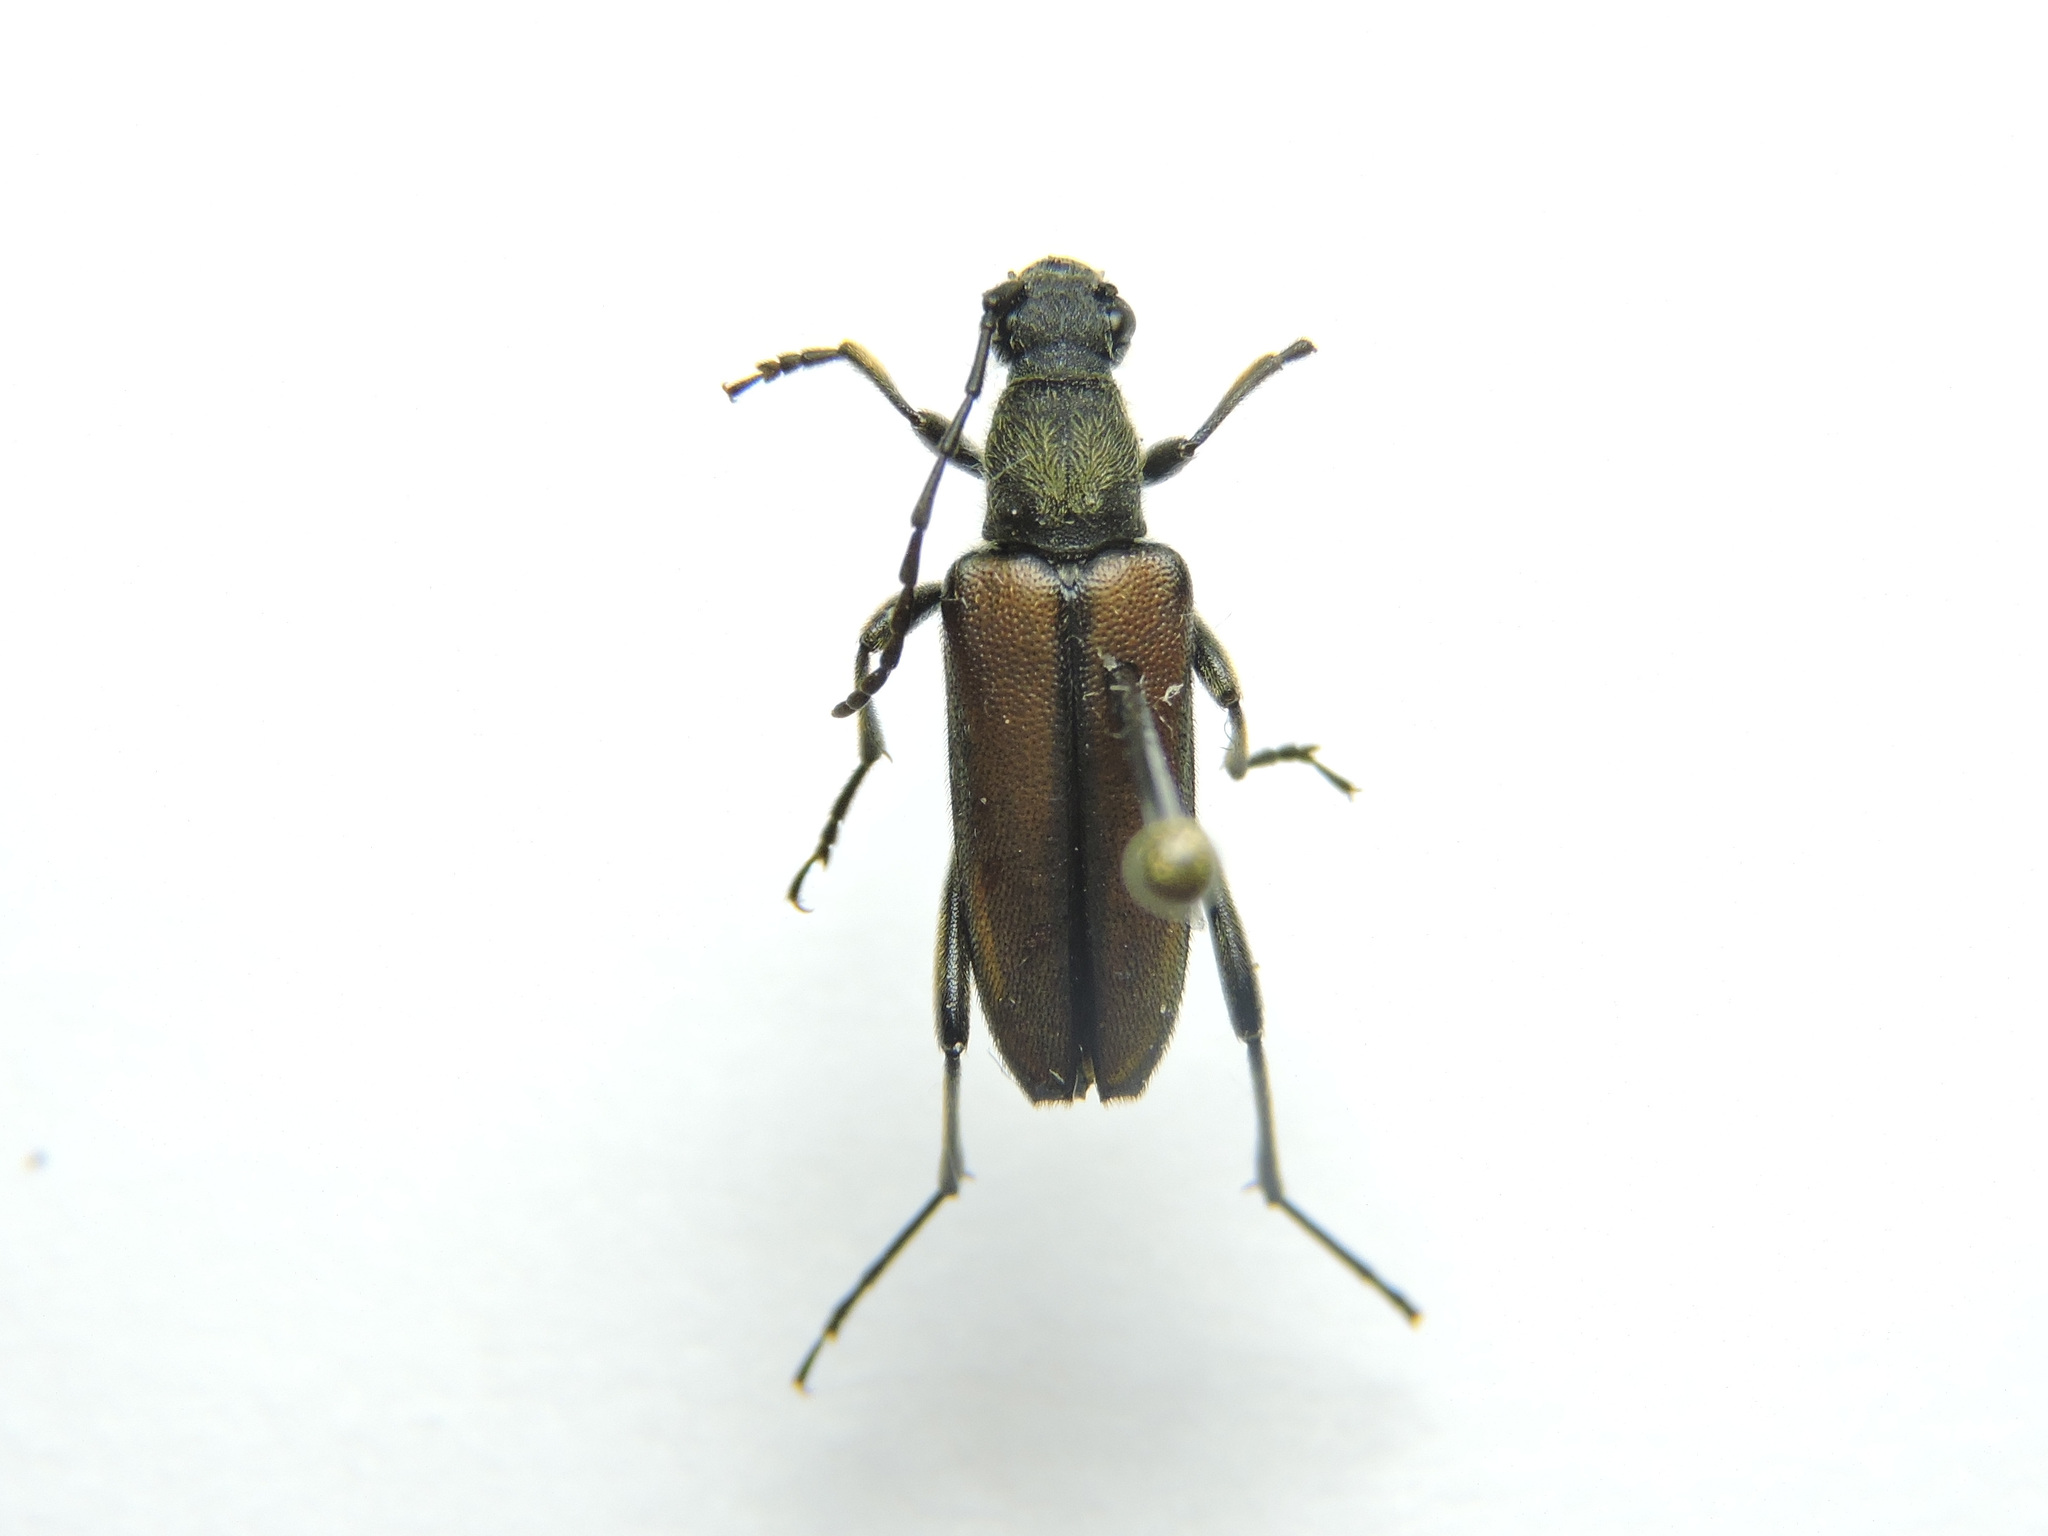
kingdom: Animalia
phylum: Arthropoda
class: Insecta
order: Coleoptera
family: Cerambycidae
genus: Anastrangalia
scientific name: Anastrangalia reyi
